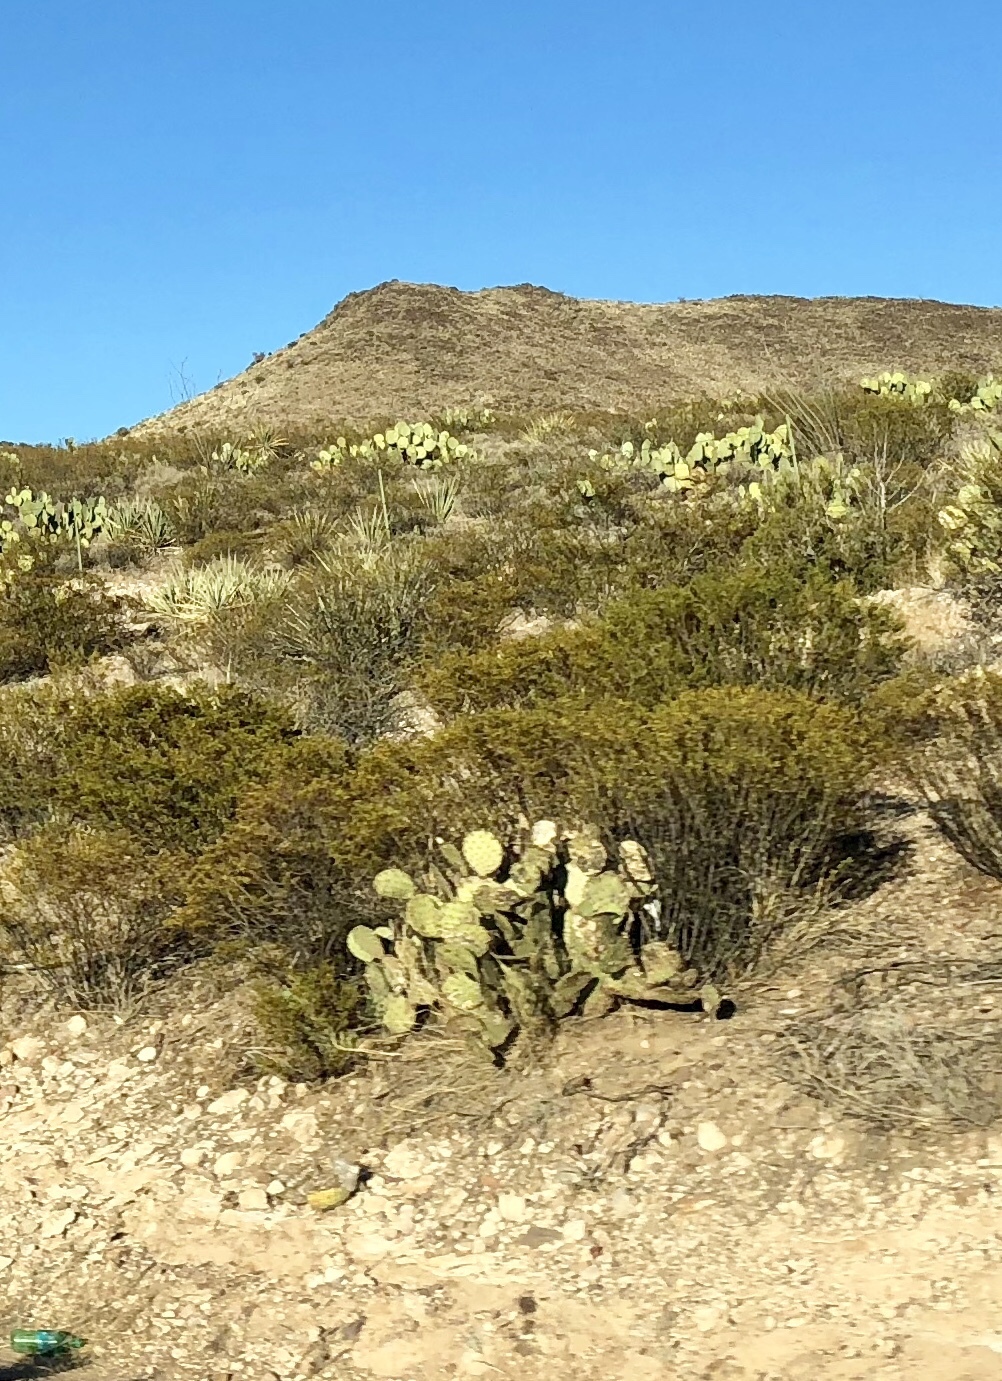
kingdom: Plantae
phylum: Tracheophyta
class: Magnoliopsida
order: Zygophyllales
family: Zygophyllaceae
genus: Larrea
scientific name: Larrea tridentata
